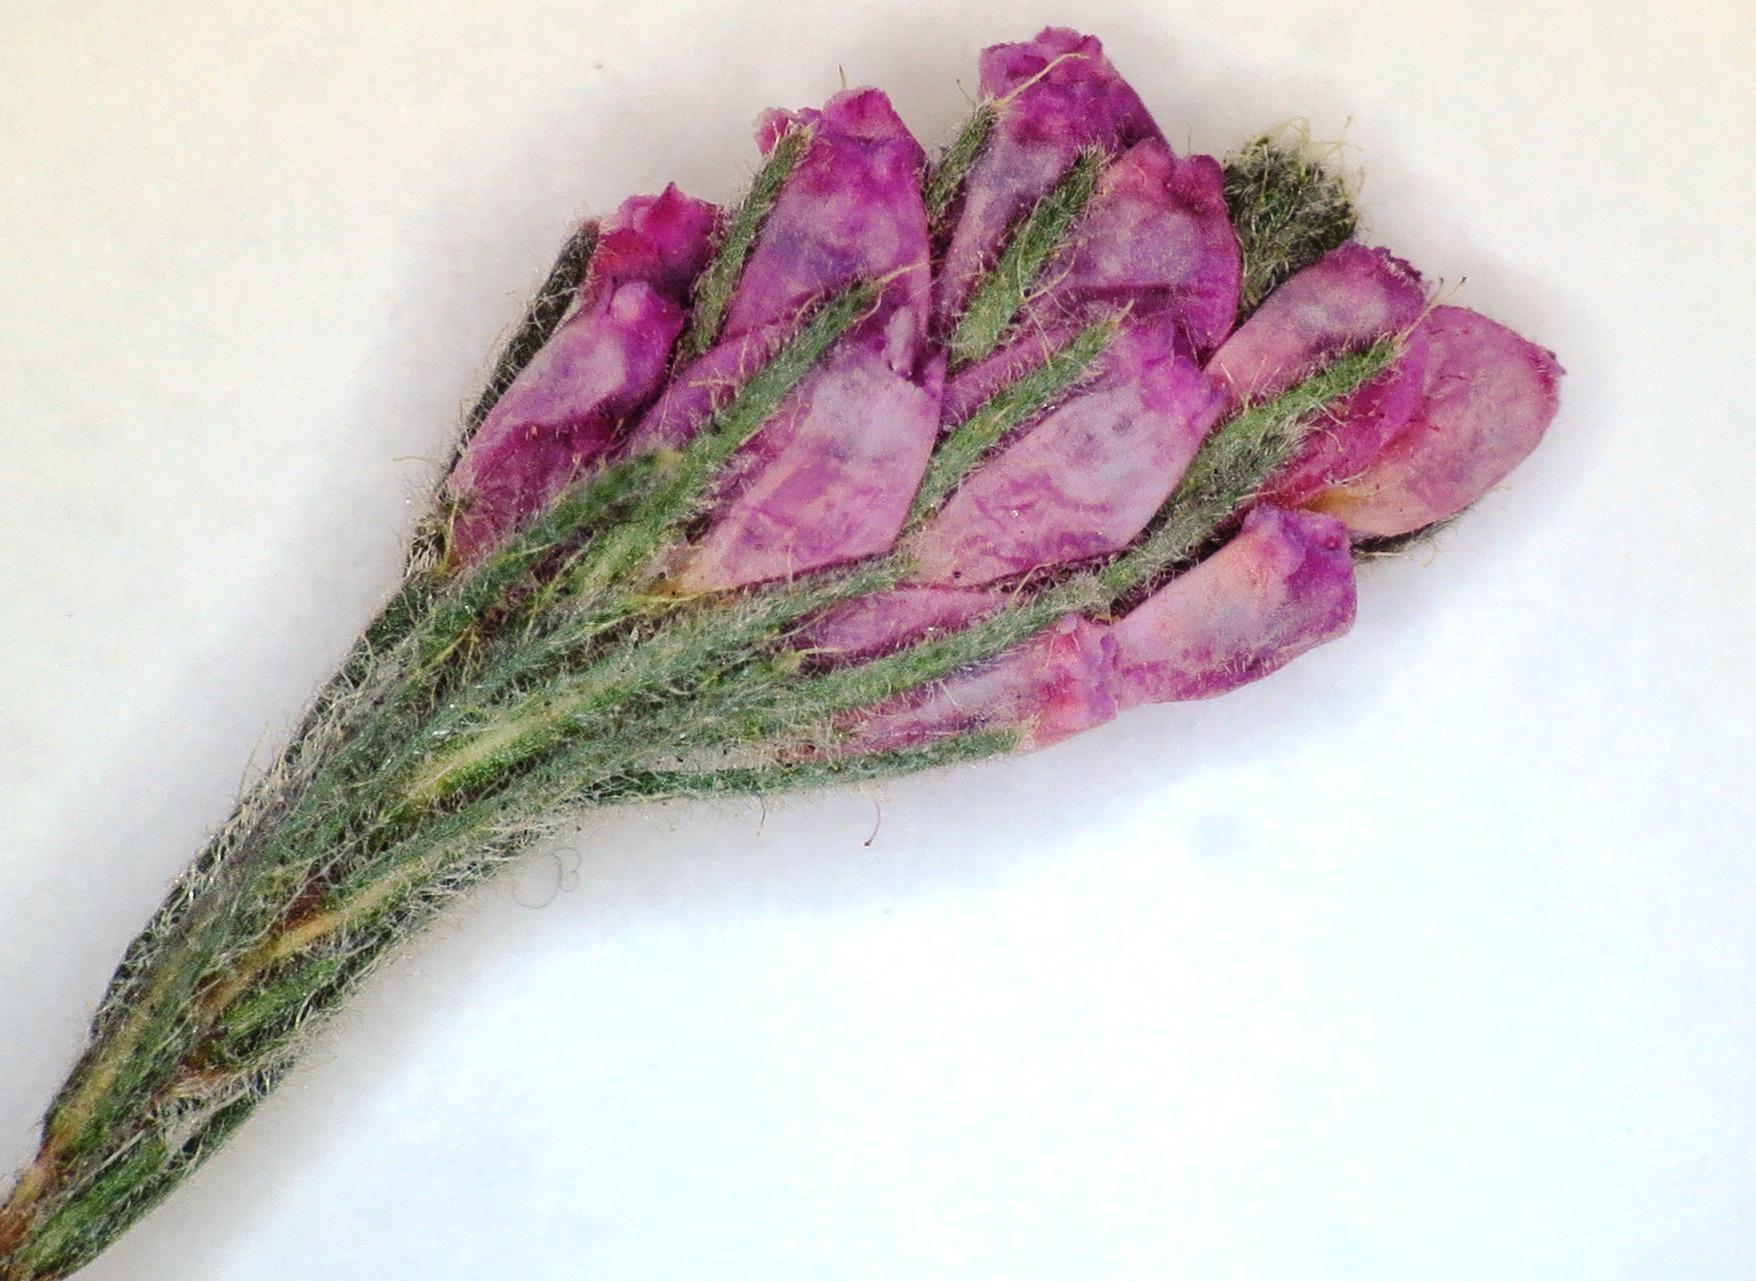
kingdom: Plantae
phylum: Tracheophyta
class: Magnoliopsida
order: Ericales
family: Ericaceae
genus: Erica
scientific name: Erica alopecurus
